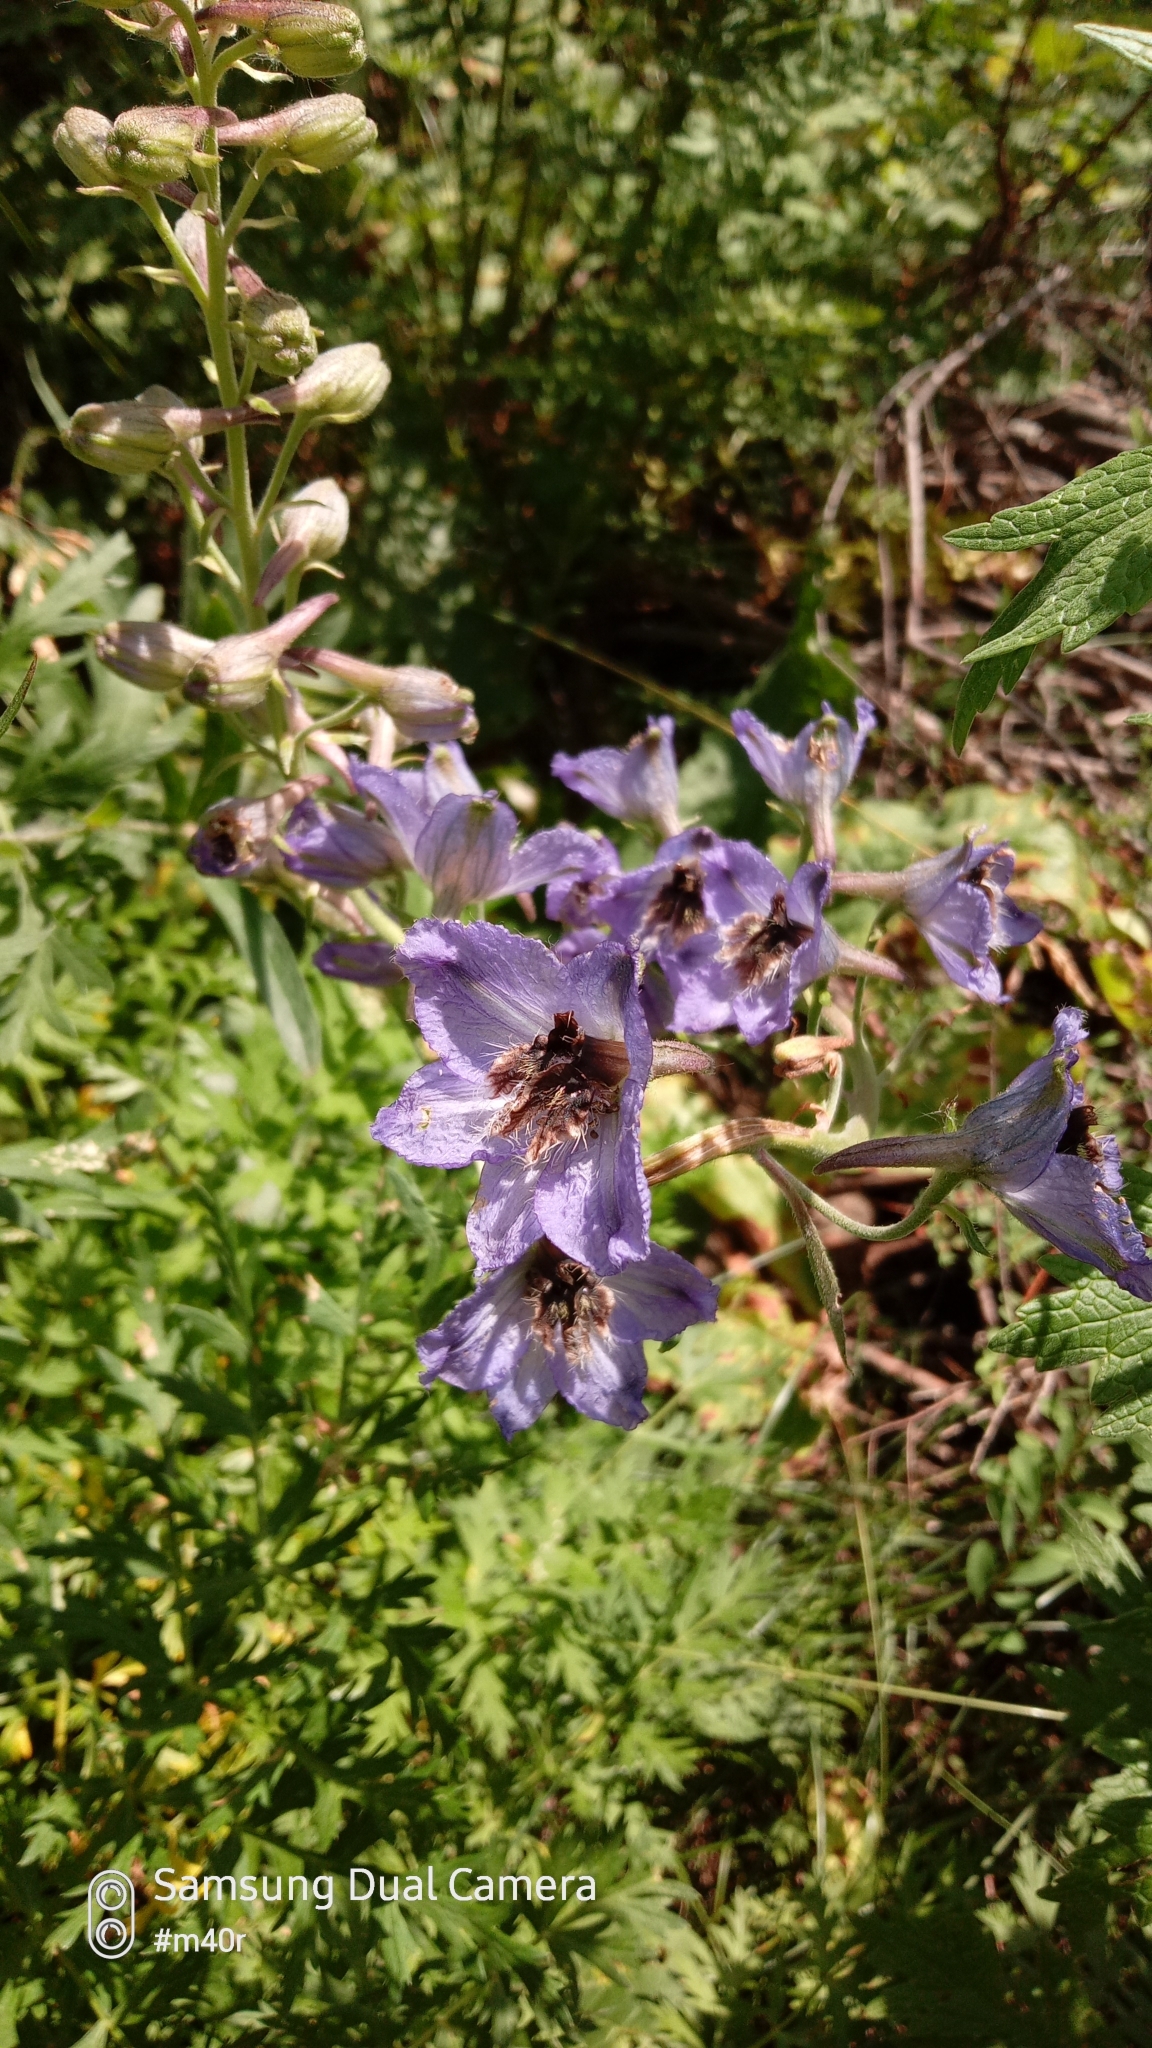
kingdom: Plantae
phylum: Tracheophyta
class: Magnoliopsida
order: Ranunculales
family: Ranunculaceae
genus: Delphinium
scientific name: Delphinium iliense
